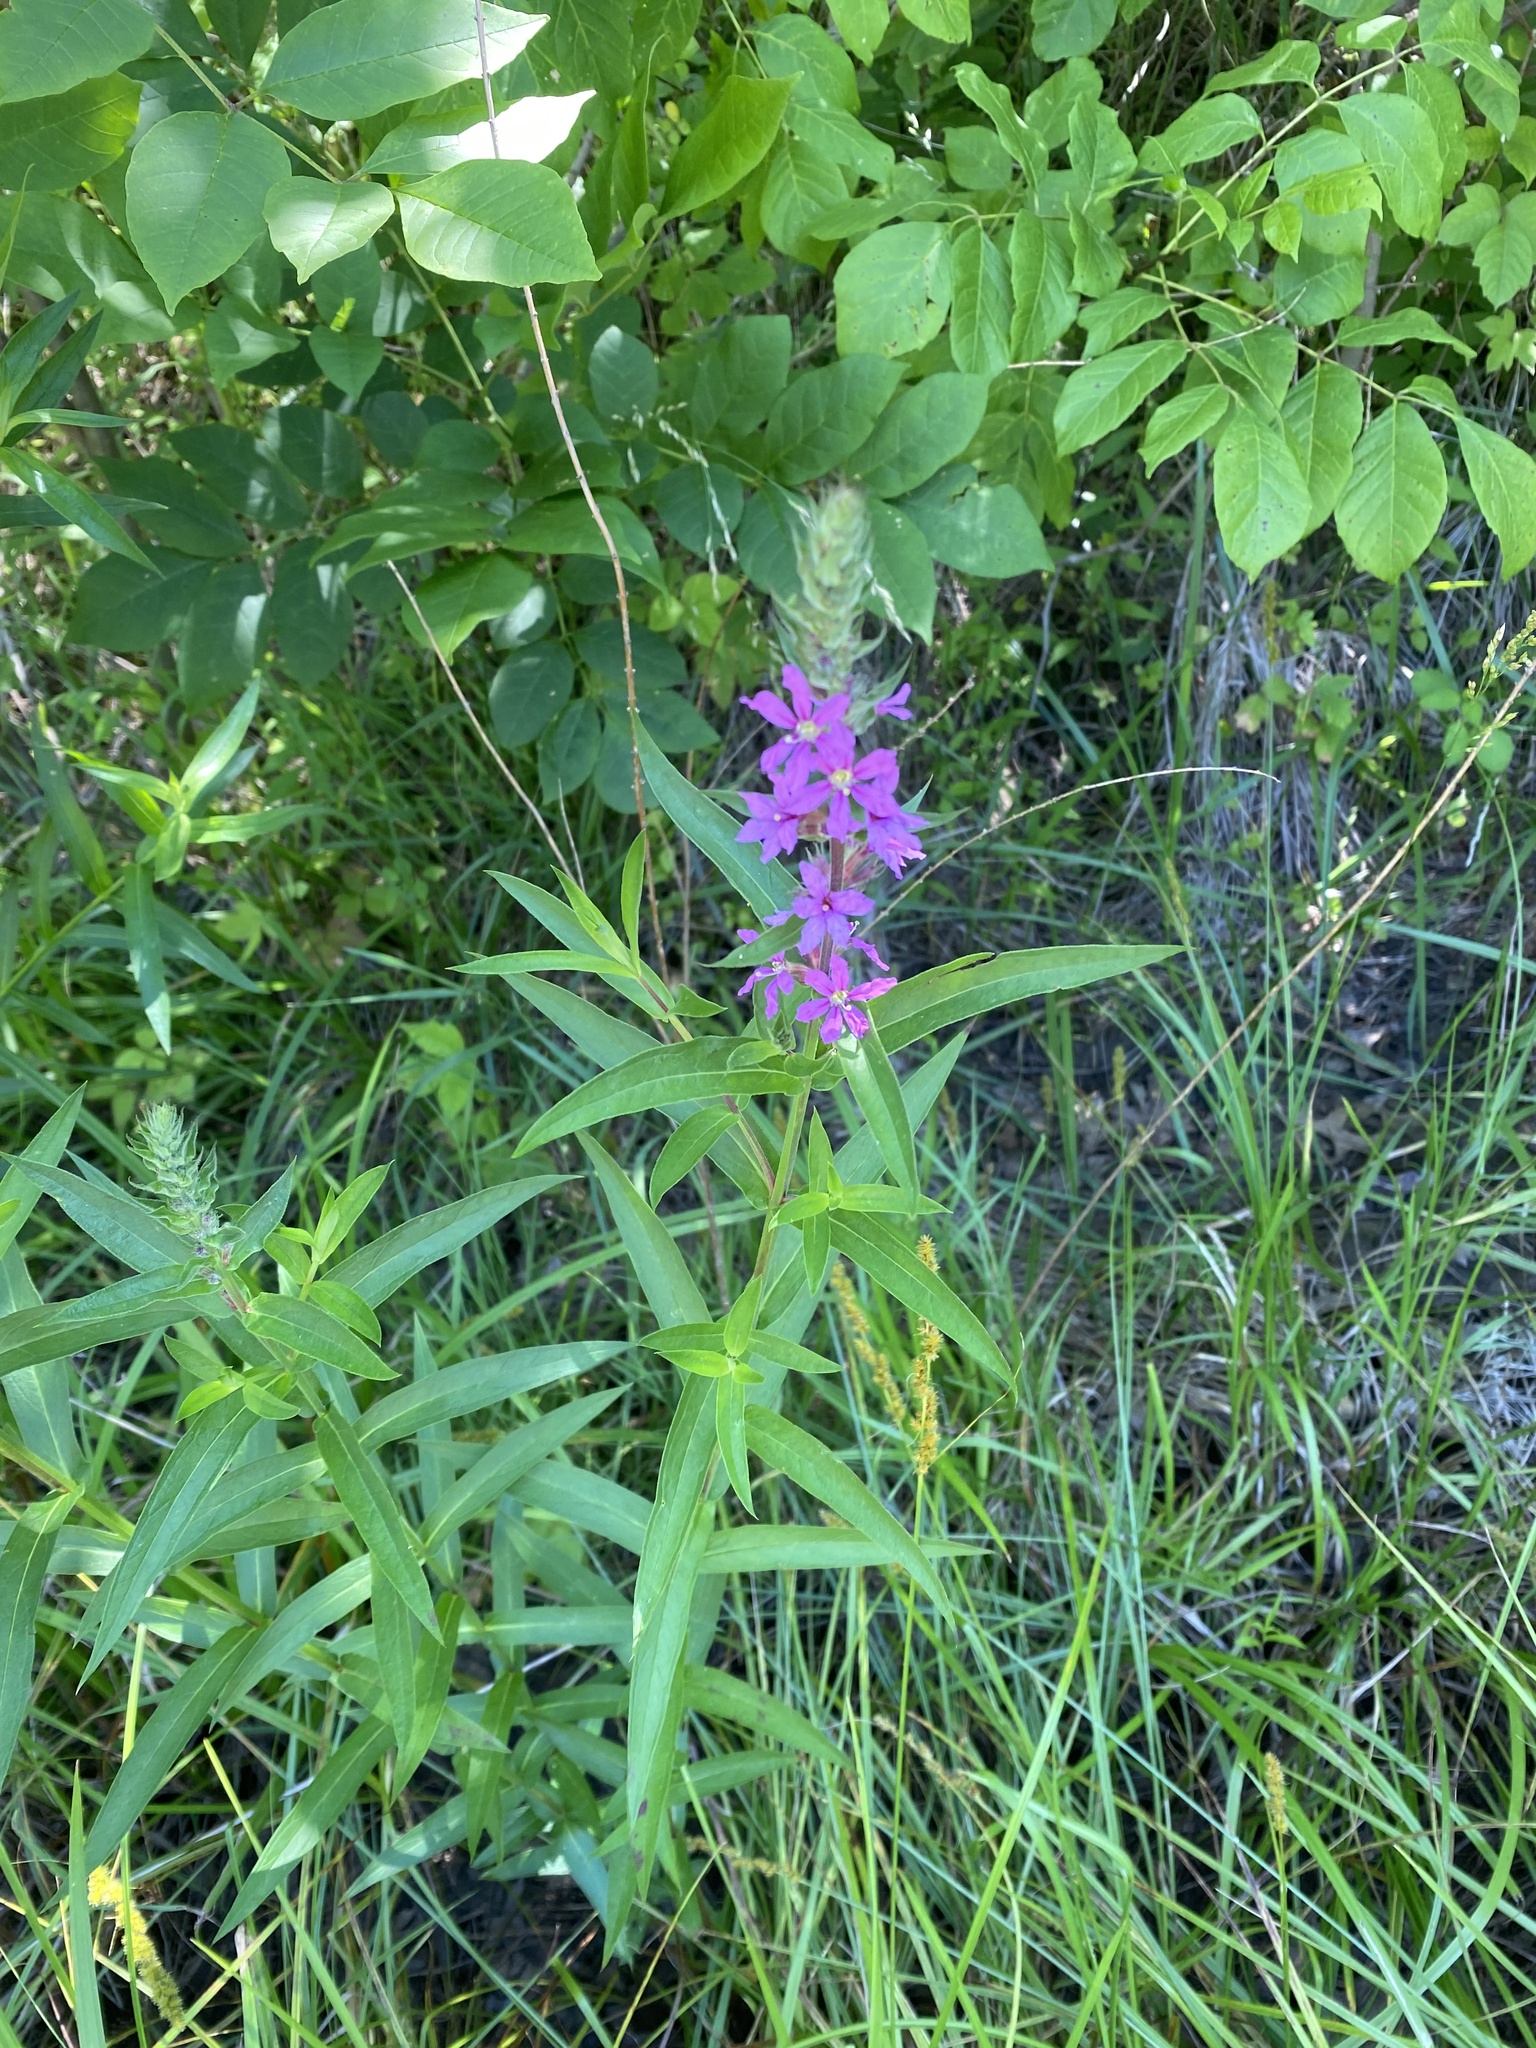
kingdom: Plantae
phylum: Tracheophyta
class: Magnoliopsida
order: Myrtales
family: Lythraceae
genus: Lythrum
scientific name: Lythrum salicaria
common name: Purple loosestrife
